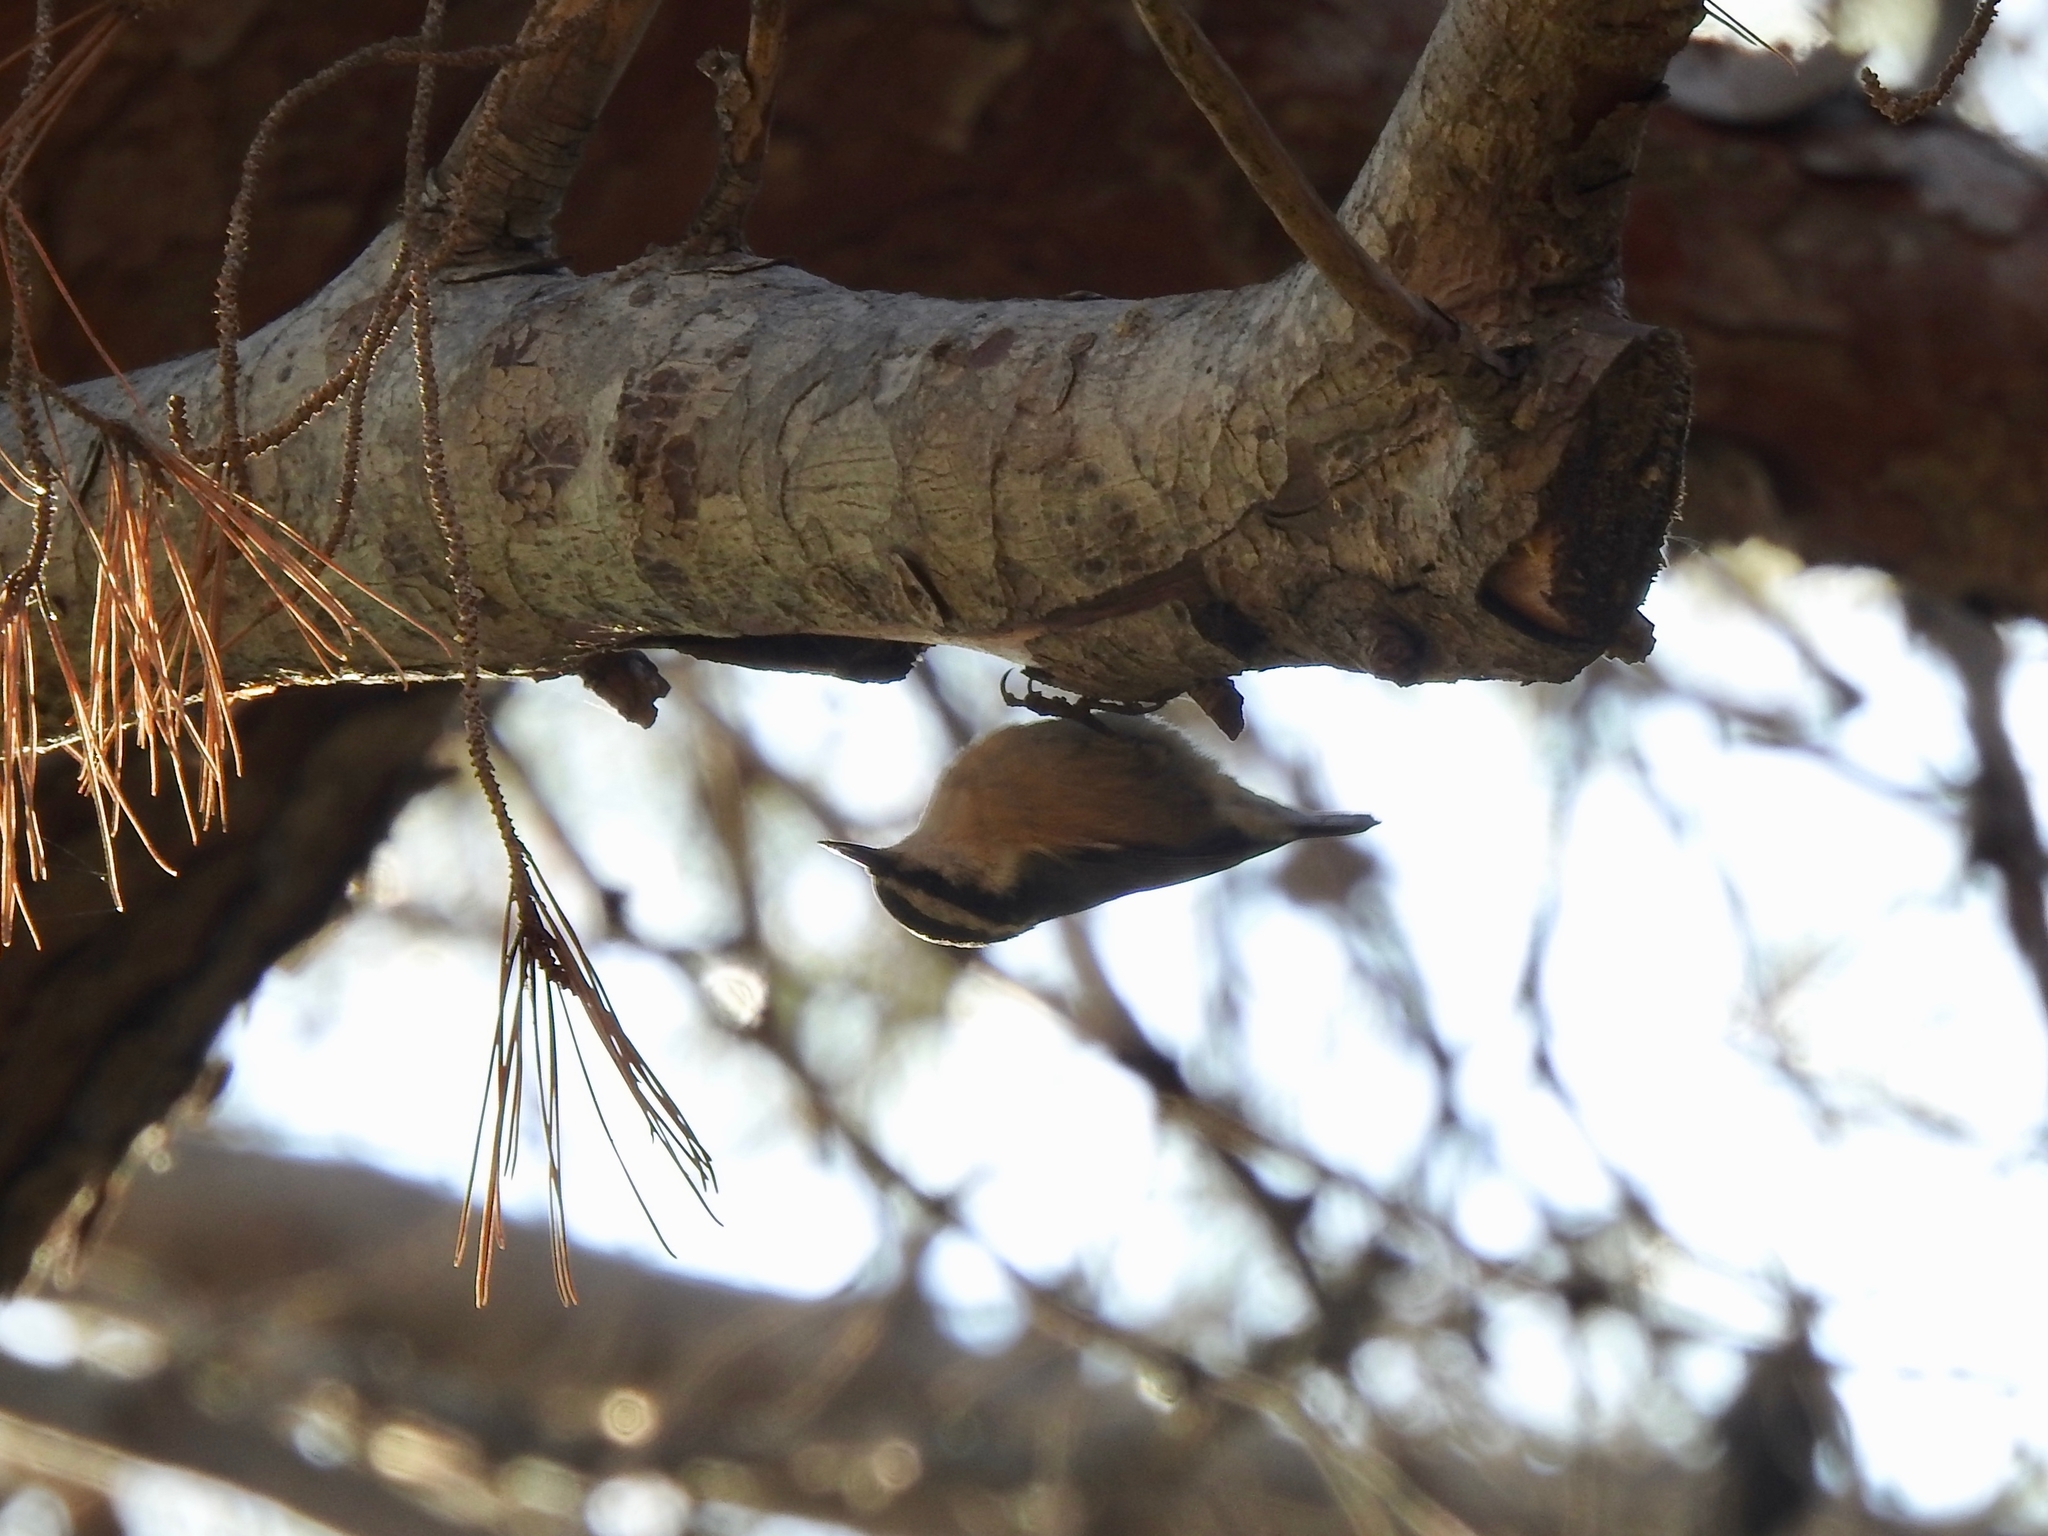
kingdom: Animalia
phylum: Chordata
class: Aves
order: Passeriformes
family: Sittidae
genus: Sitta
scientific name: Sitta canadensis
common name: Red-breasted nuthatch
